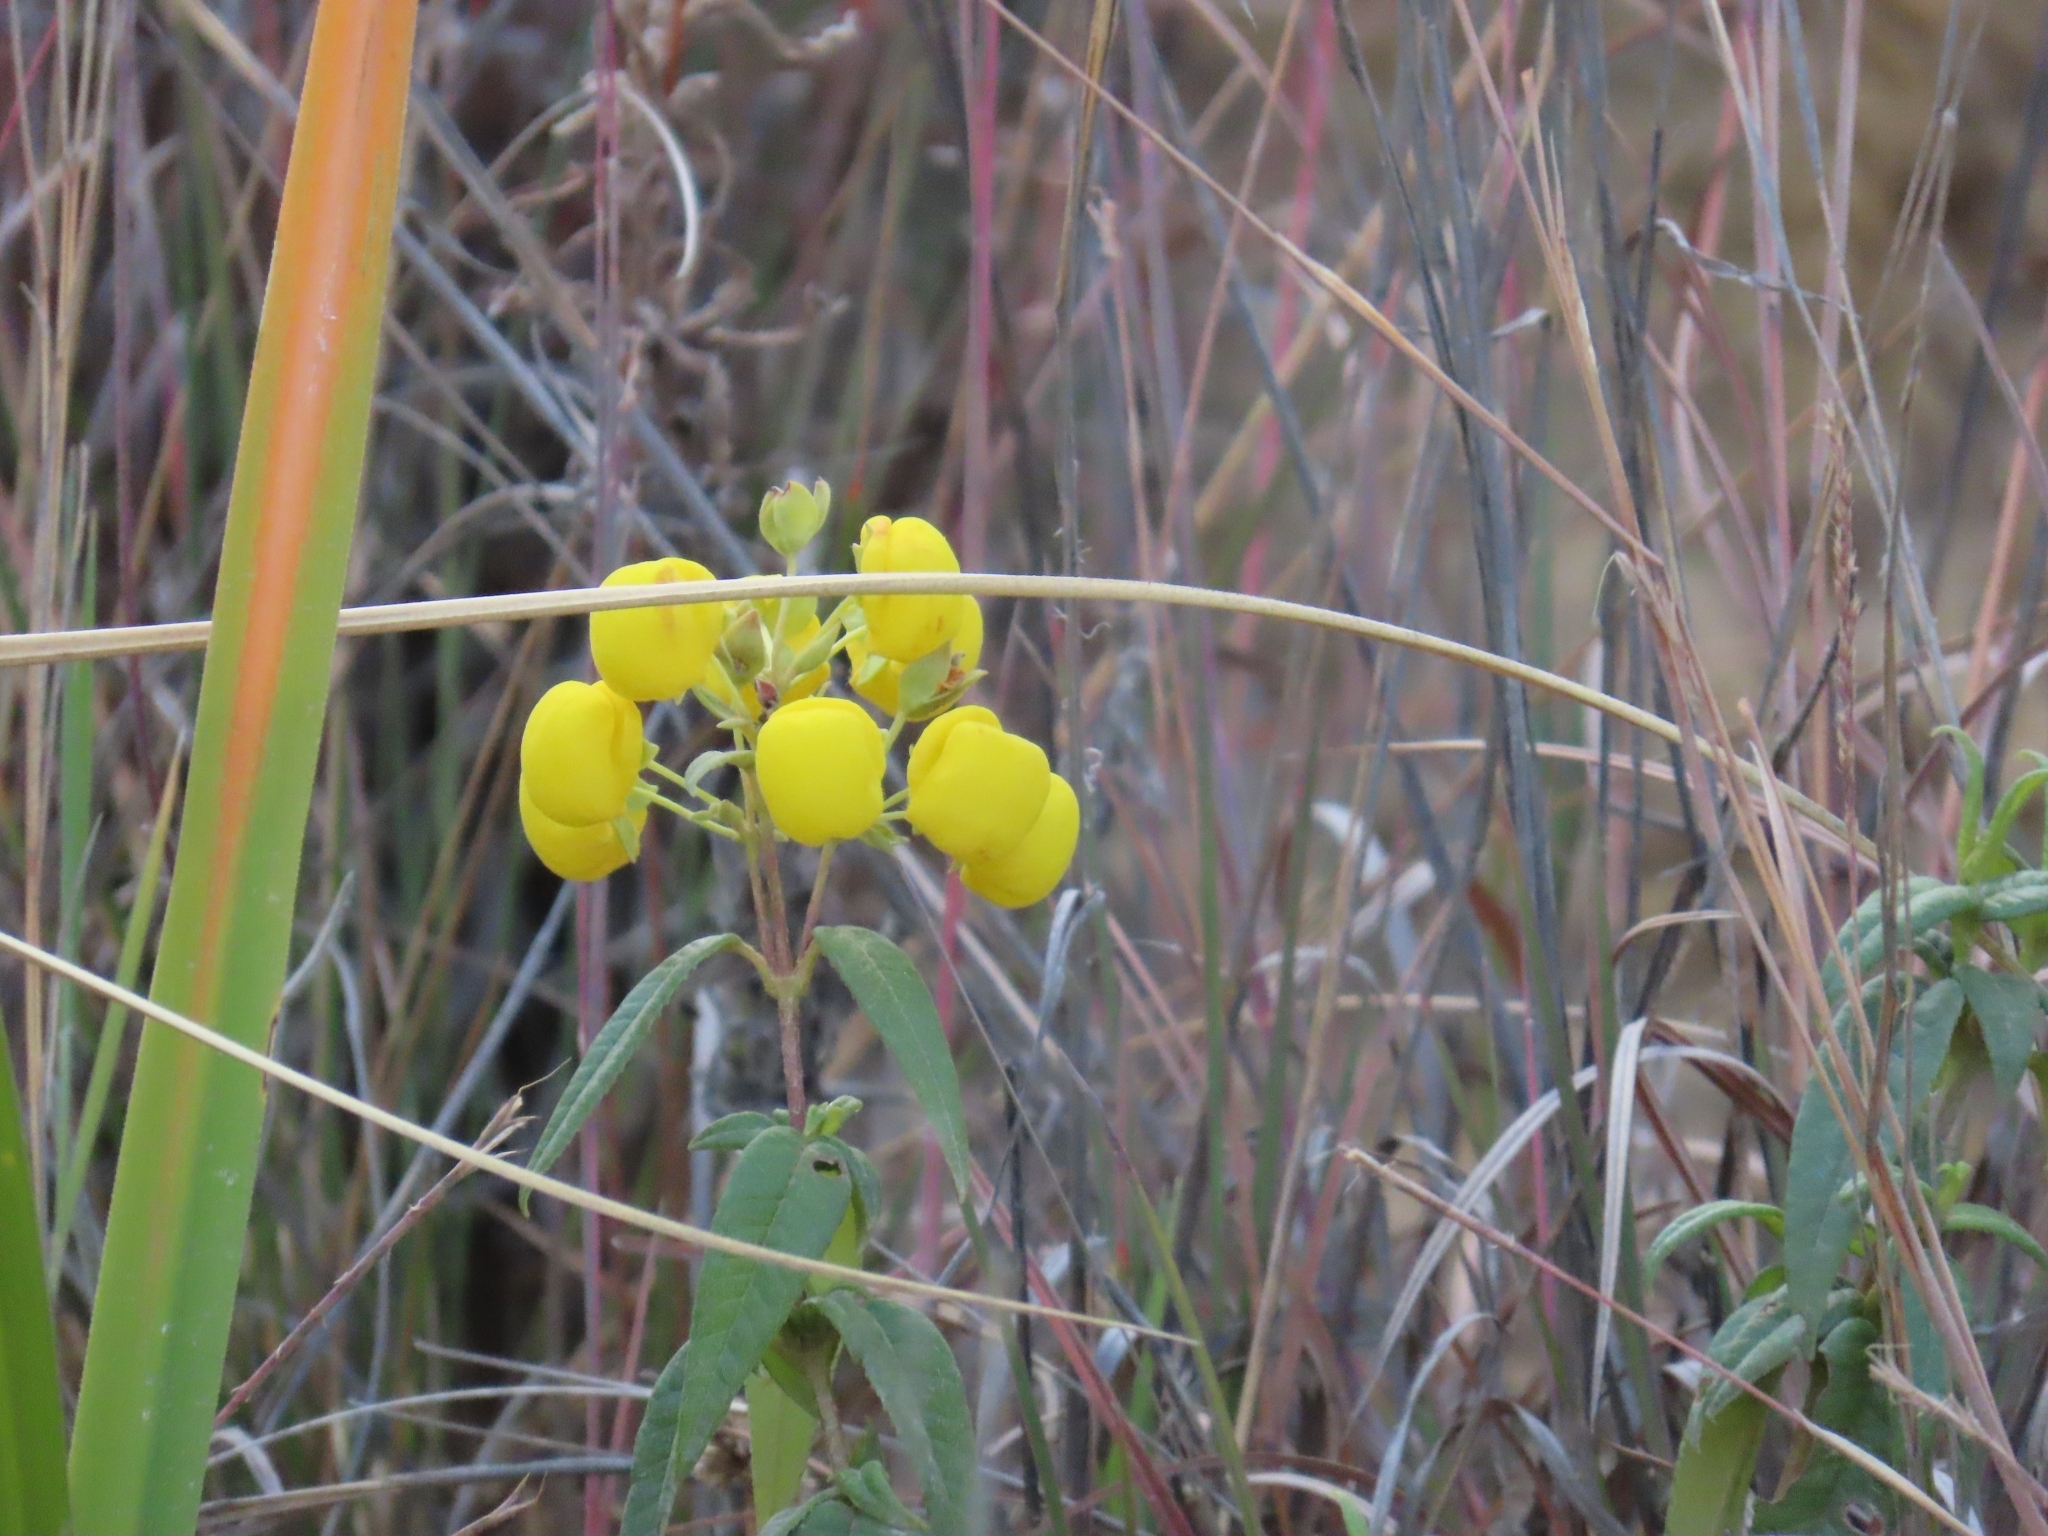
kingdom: Plantae
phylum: Tracheophyta
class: Magnoliopsida
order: Lamiales
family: Calceolariaceae
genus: Calceolaria
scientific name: Calceolaria nivalis
